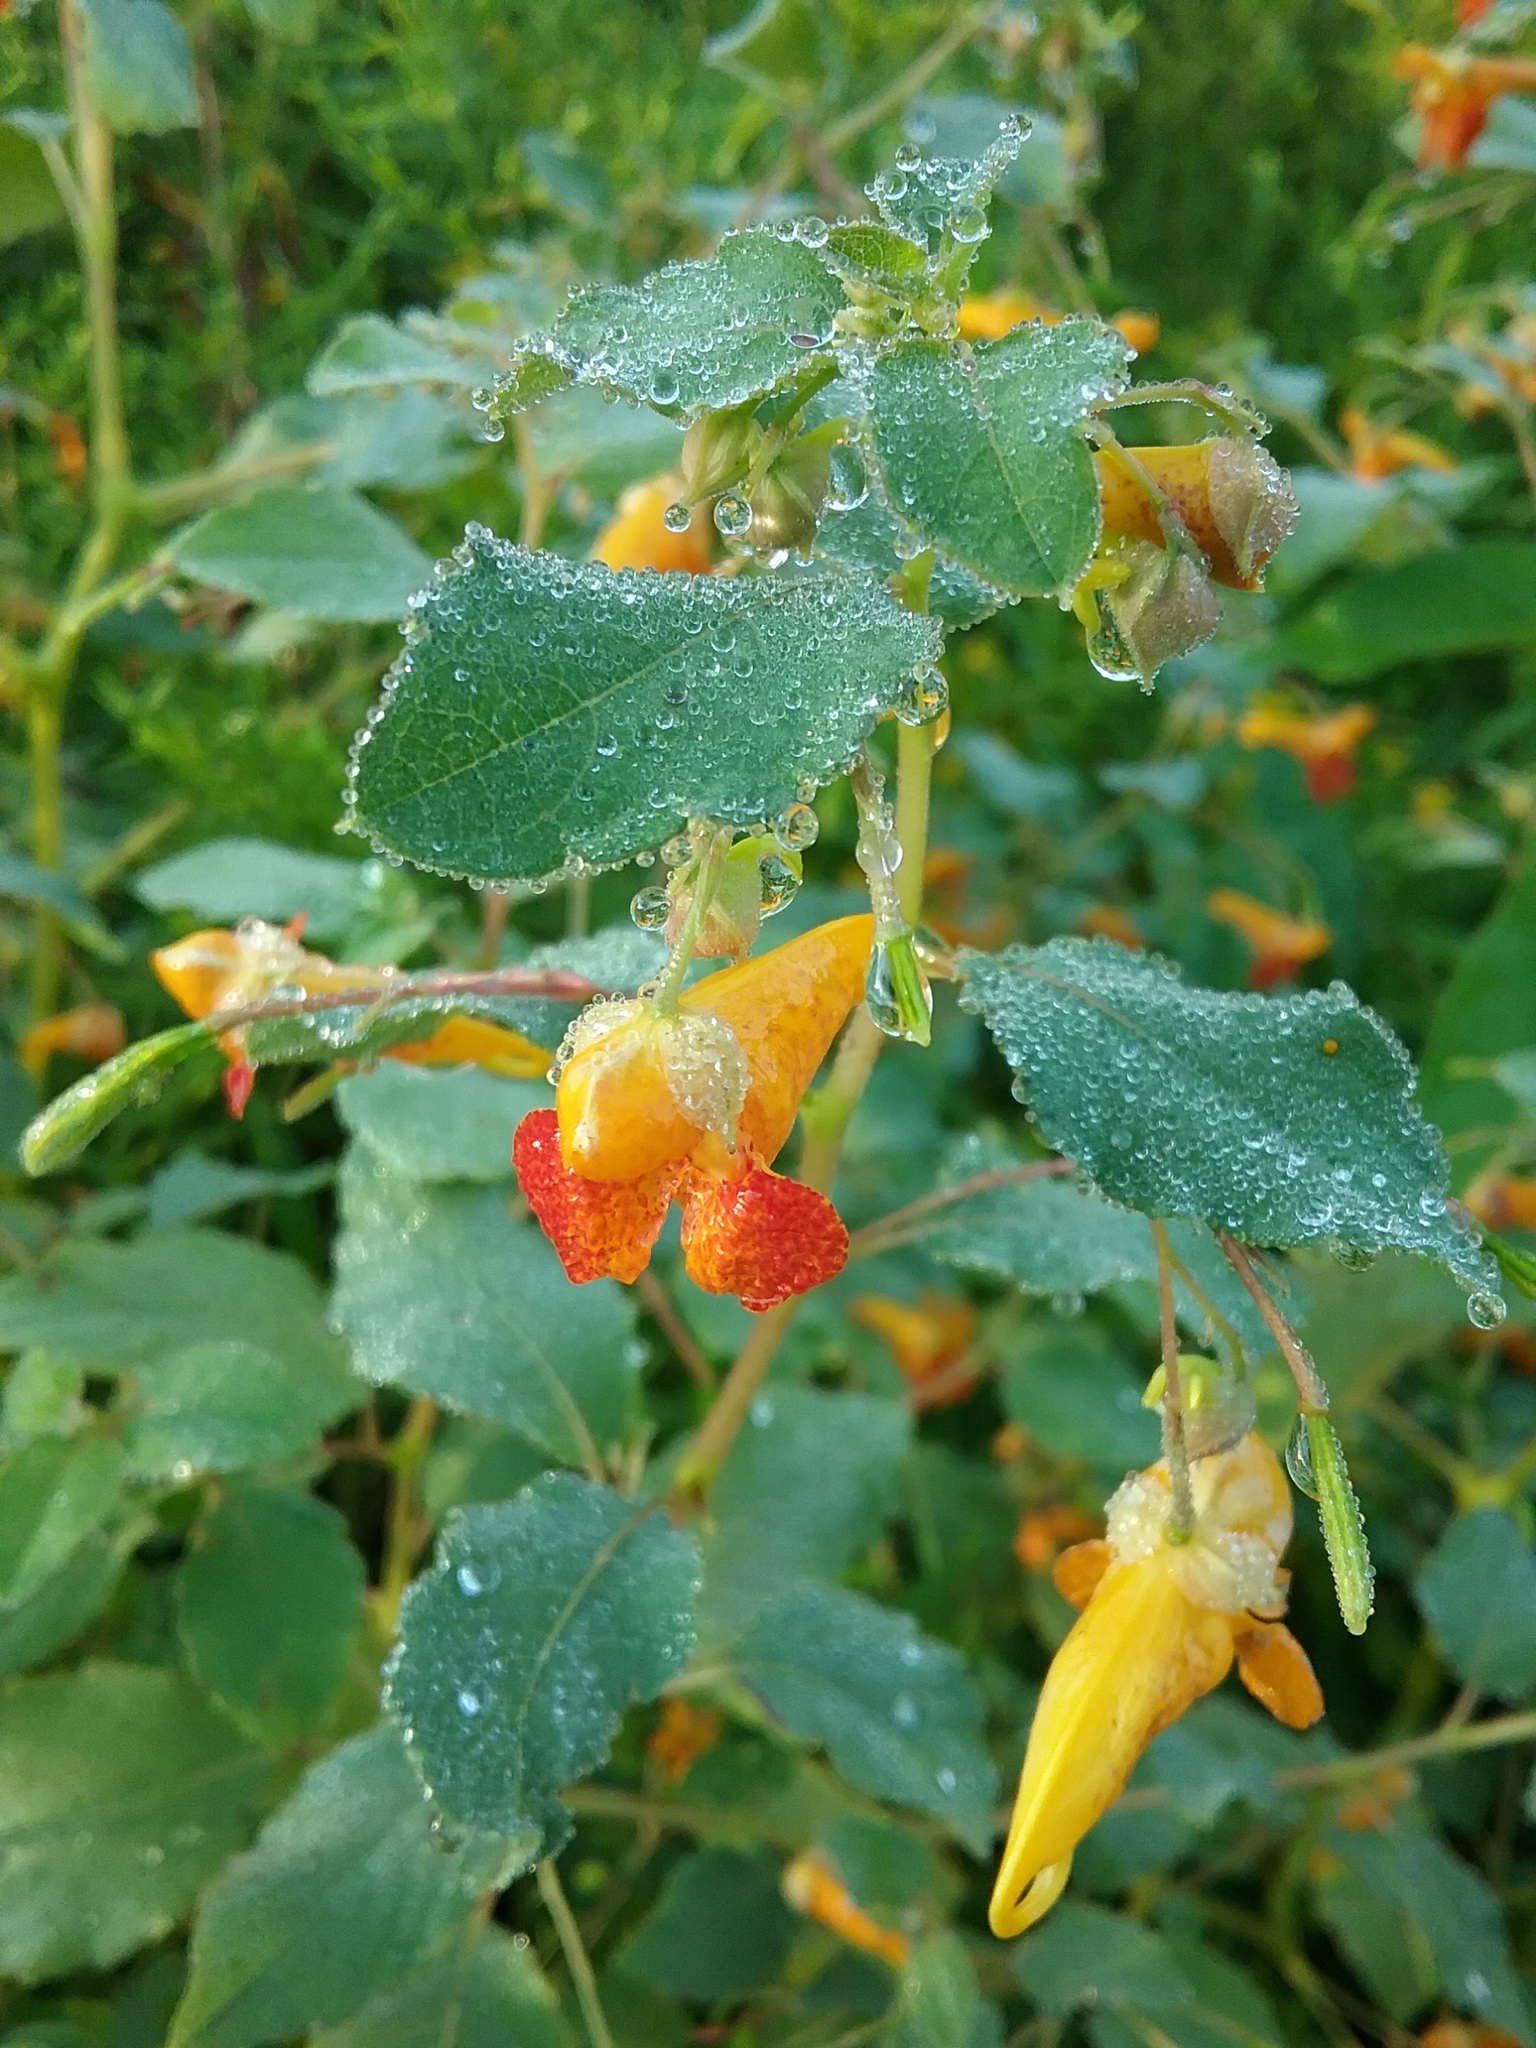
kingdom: Plantae
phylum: Tracheophyta
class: Magnoliopsida
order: Ericales
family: Balsaminaceae
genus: Impatiens
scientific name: Impatiens capensis
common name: Orange balsam
